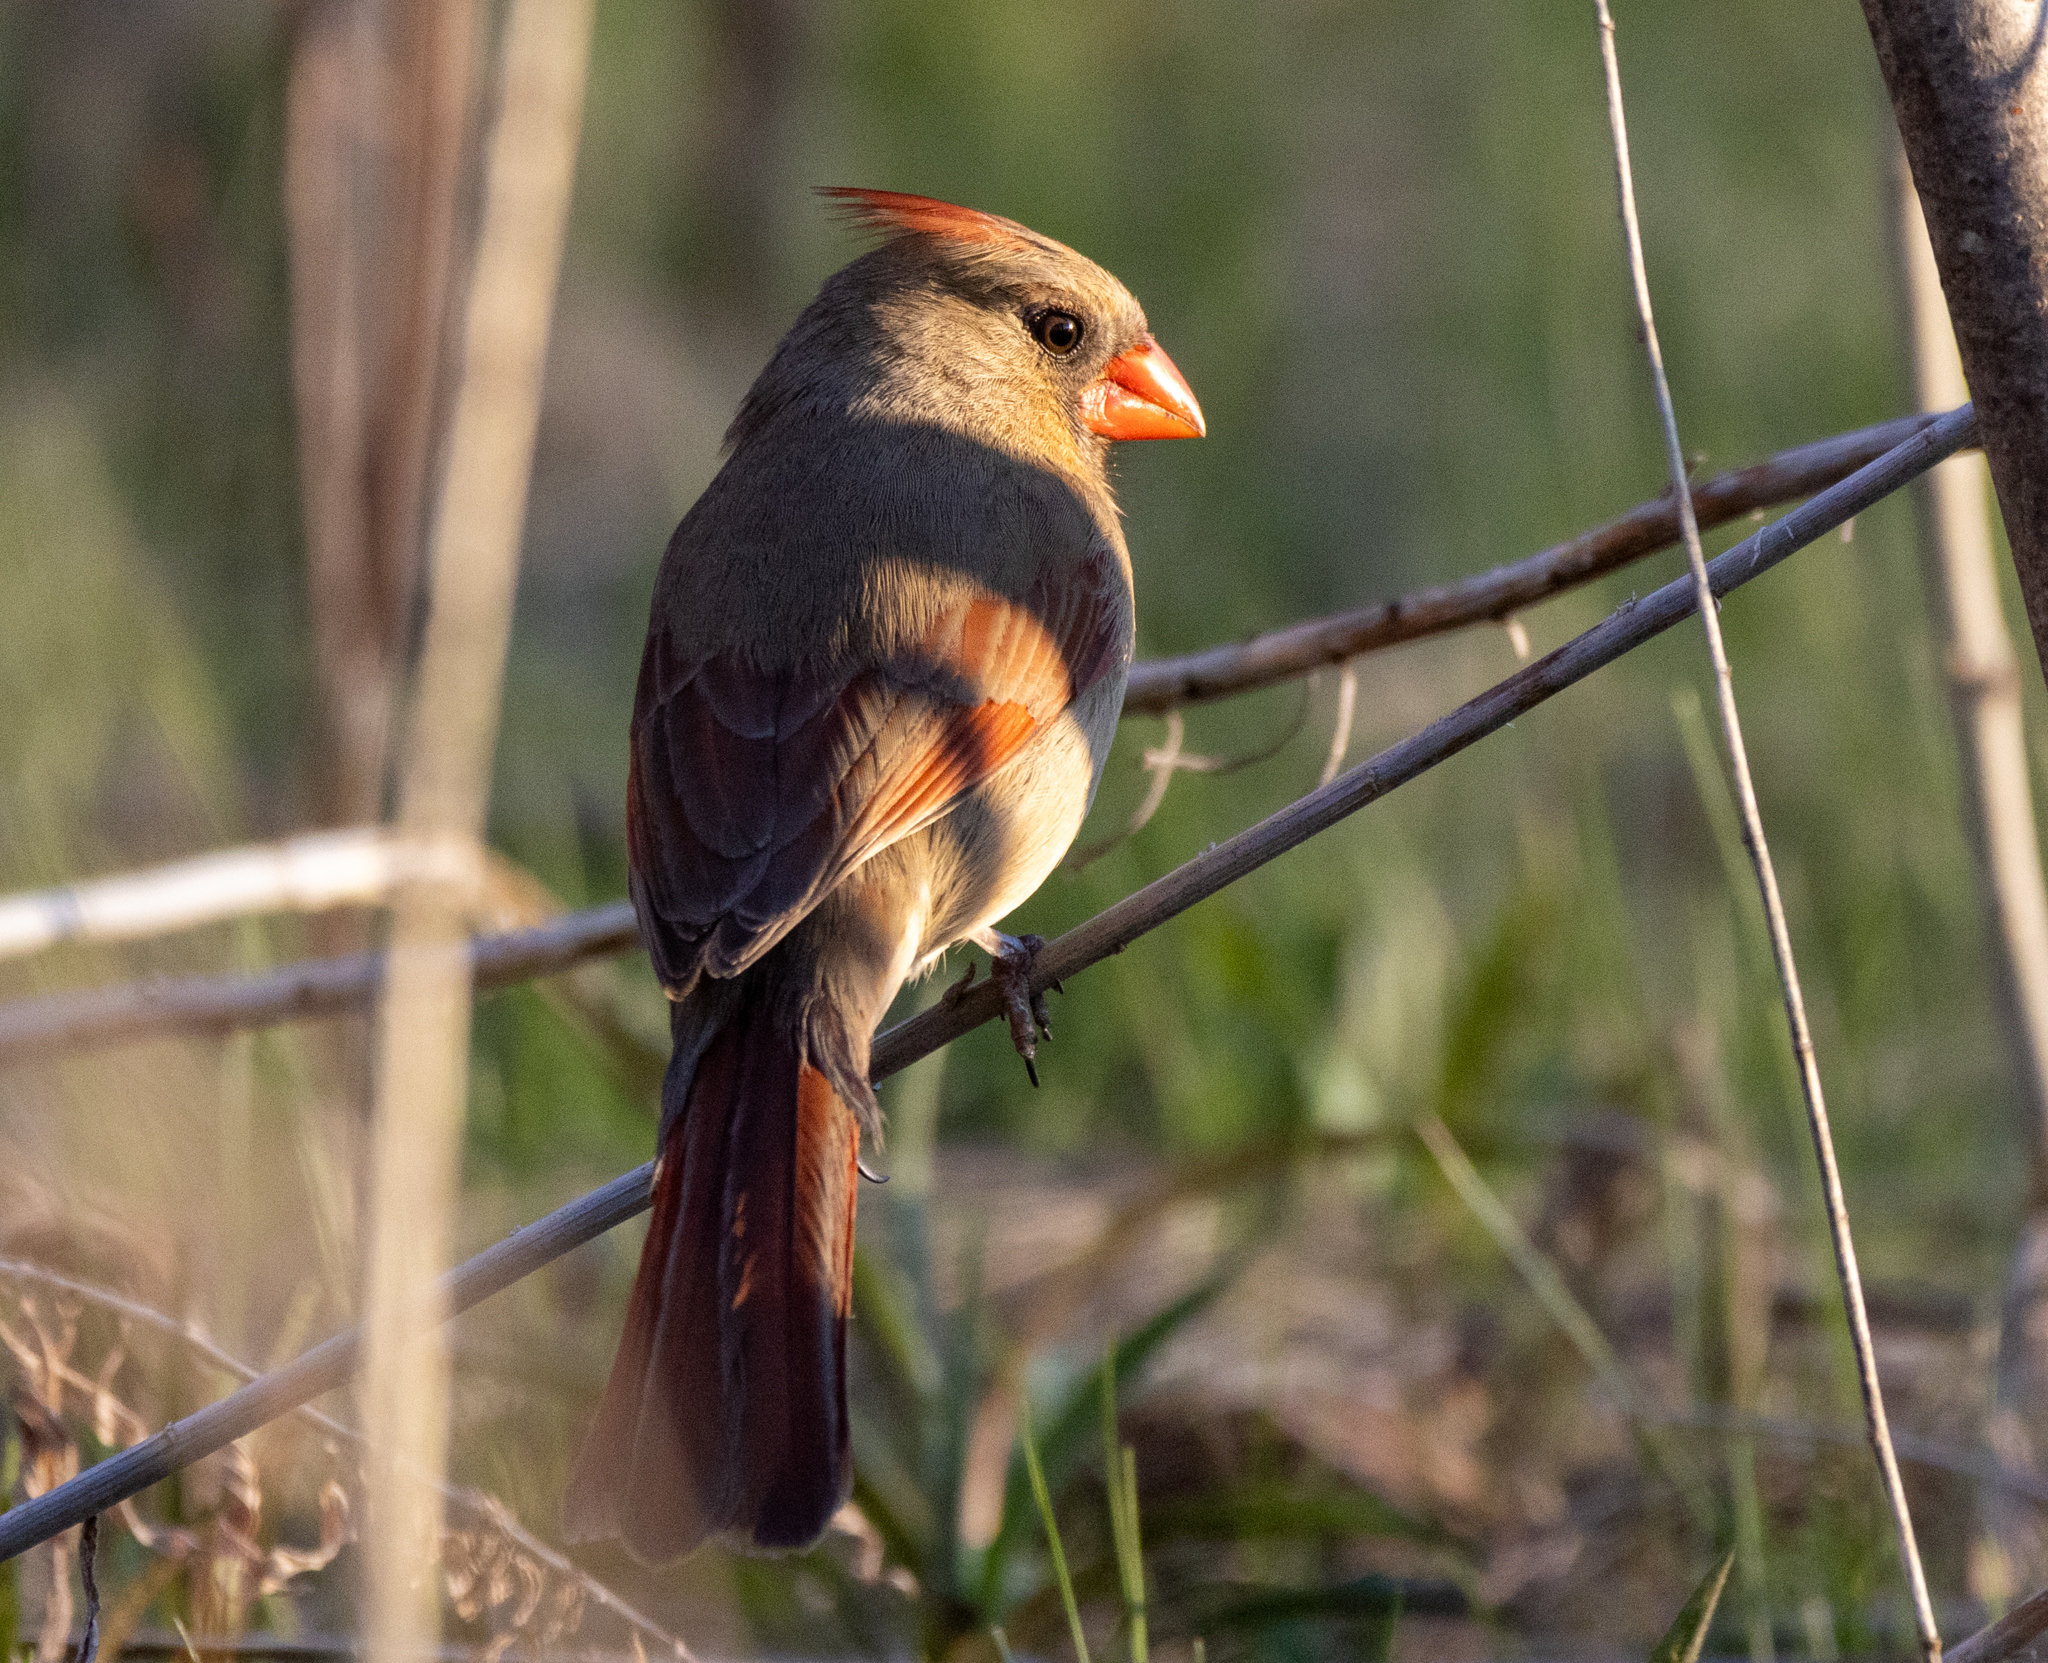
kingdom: Animalia
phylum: Chordata
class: Aves
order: Passeriformes
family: Cardinalidae
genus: Cardinalis
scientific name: Cardinalis cardinalis
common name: Northern cardinal
